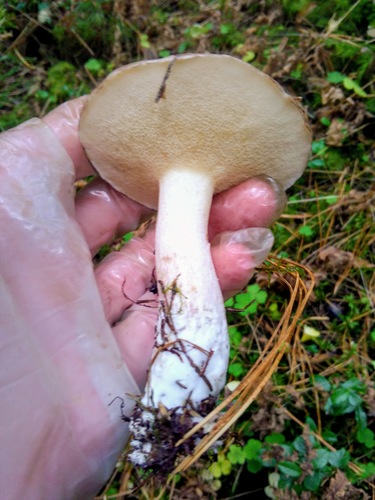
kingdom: Fungi
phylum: Basidiomycota
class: Agaricomycetes
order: Boletales
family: Suillaceae
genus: Suillus
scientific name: Suillus placidus
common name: Slippery white bolete
